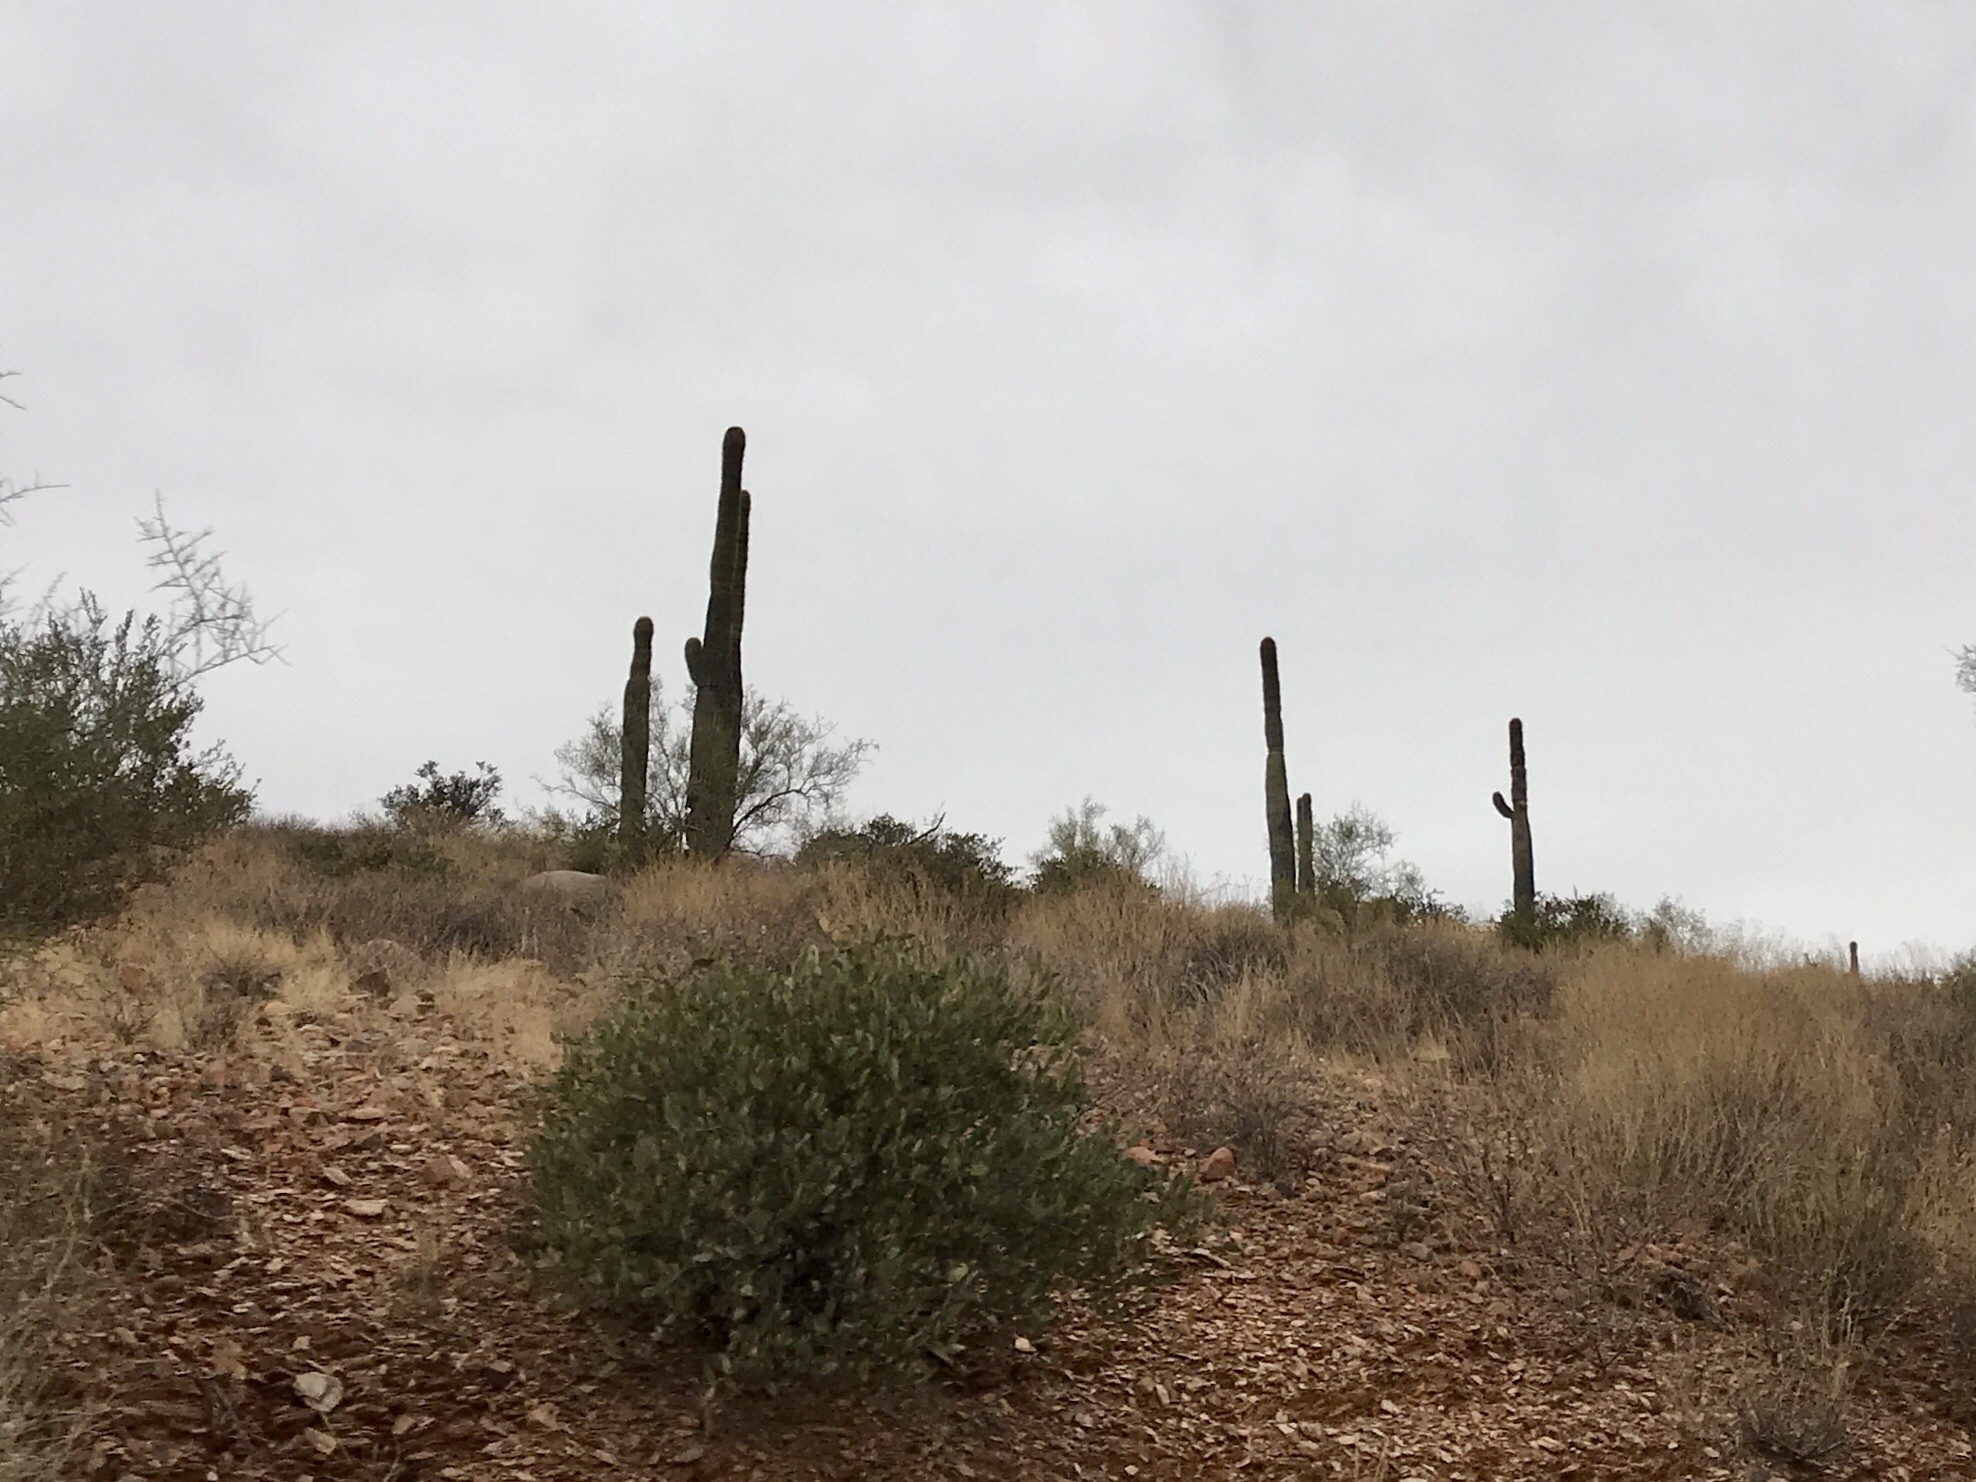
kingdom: Plantae
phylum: Tracheophyta
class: Magnoliopsida
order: Caryophyllales
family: Cactaceae
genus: Carnegiea
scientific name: Carnegiea gigantea
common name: Saguaro
